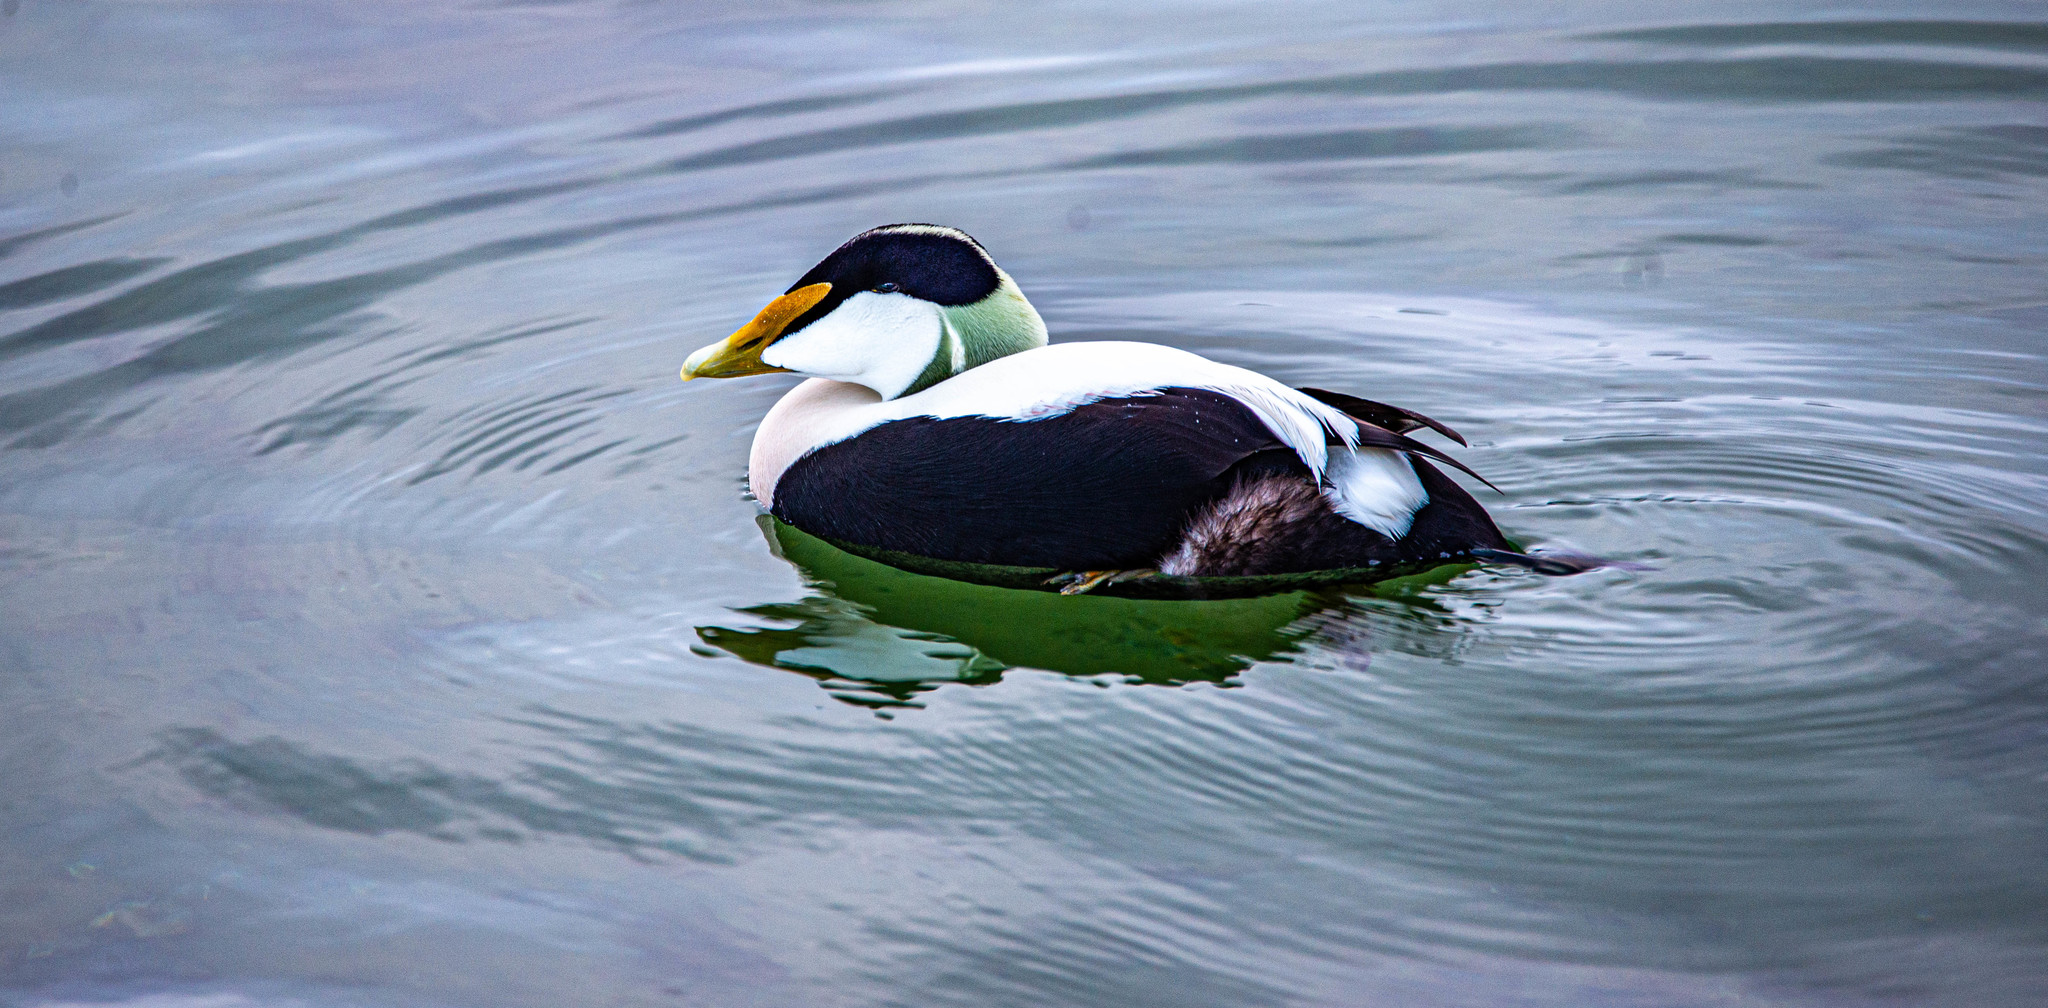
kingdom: Animalia
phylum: Chordata
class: Aves
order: Anseriformes
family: Anatidae
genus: Somateria
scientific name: Somateria mollissima
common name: Common eider
